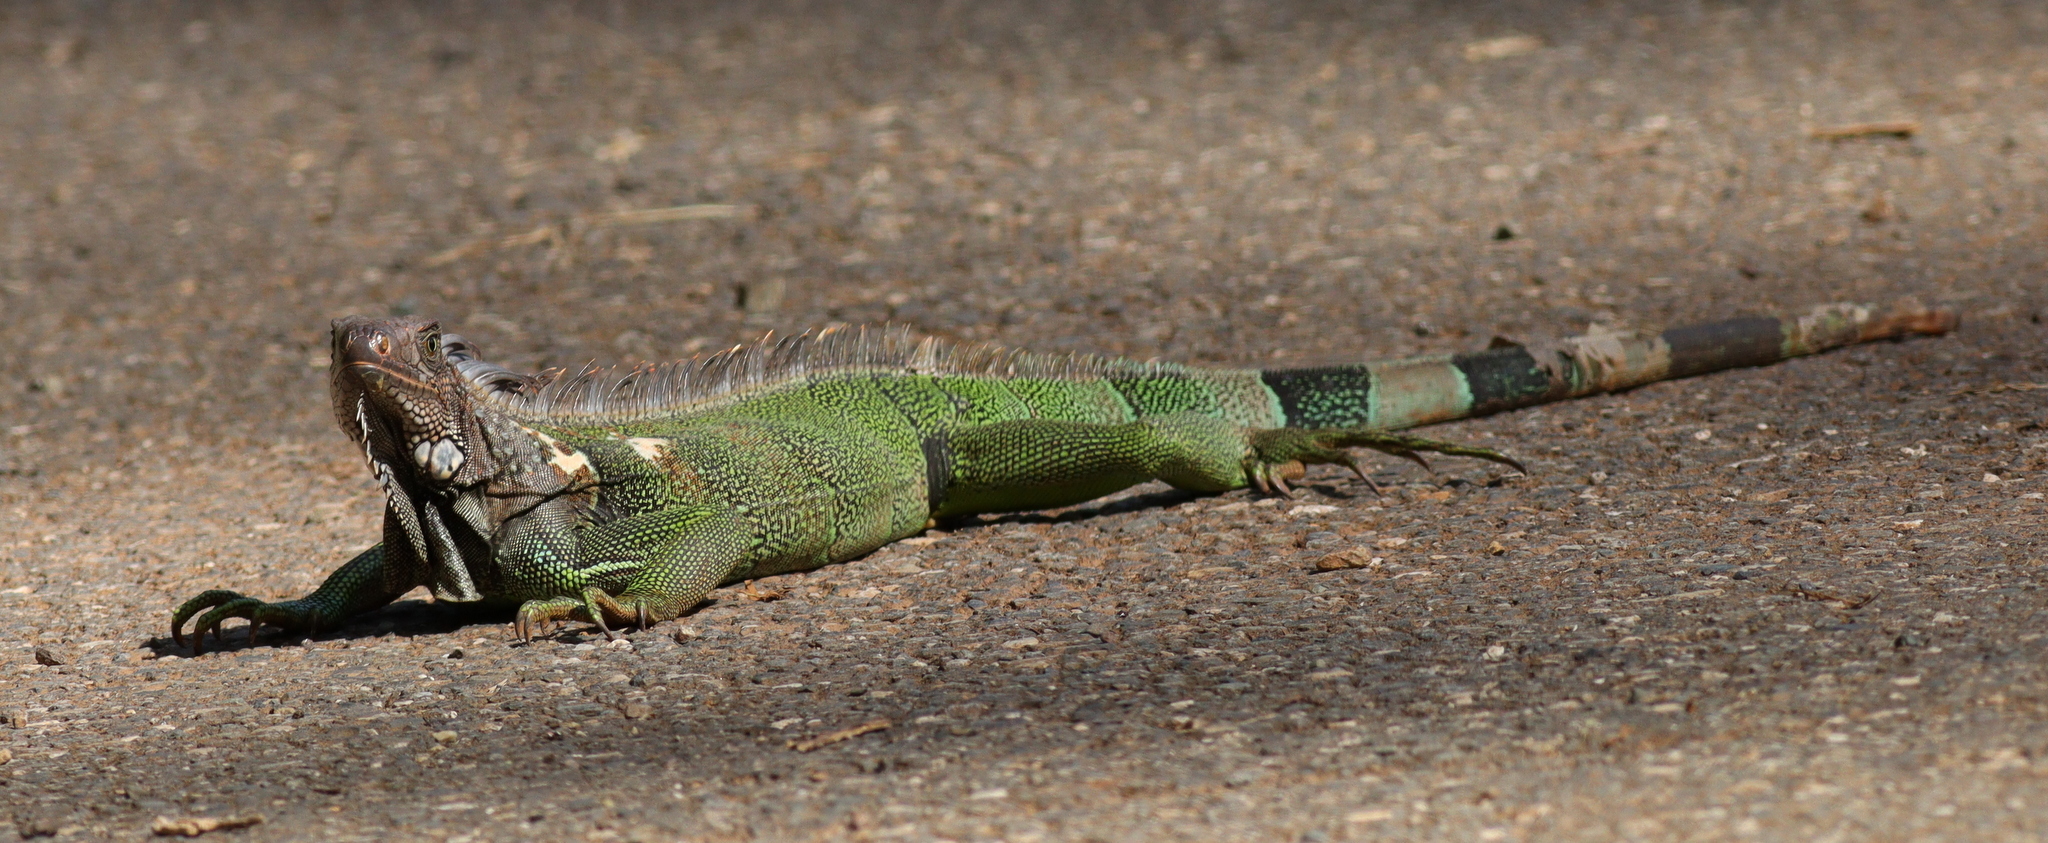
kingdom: Animalia
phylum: Chordata
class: Squamata
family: Iguanidae
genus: Iguana
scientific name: Iguana iguana
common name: Green iguana
